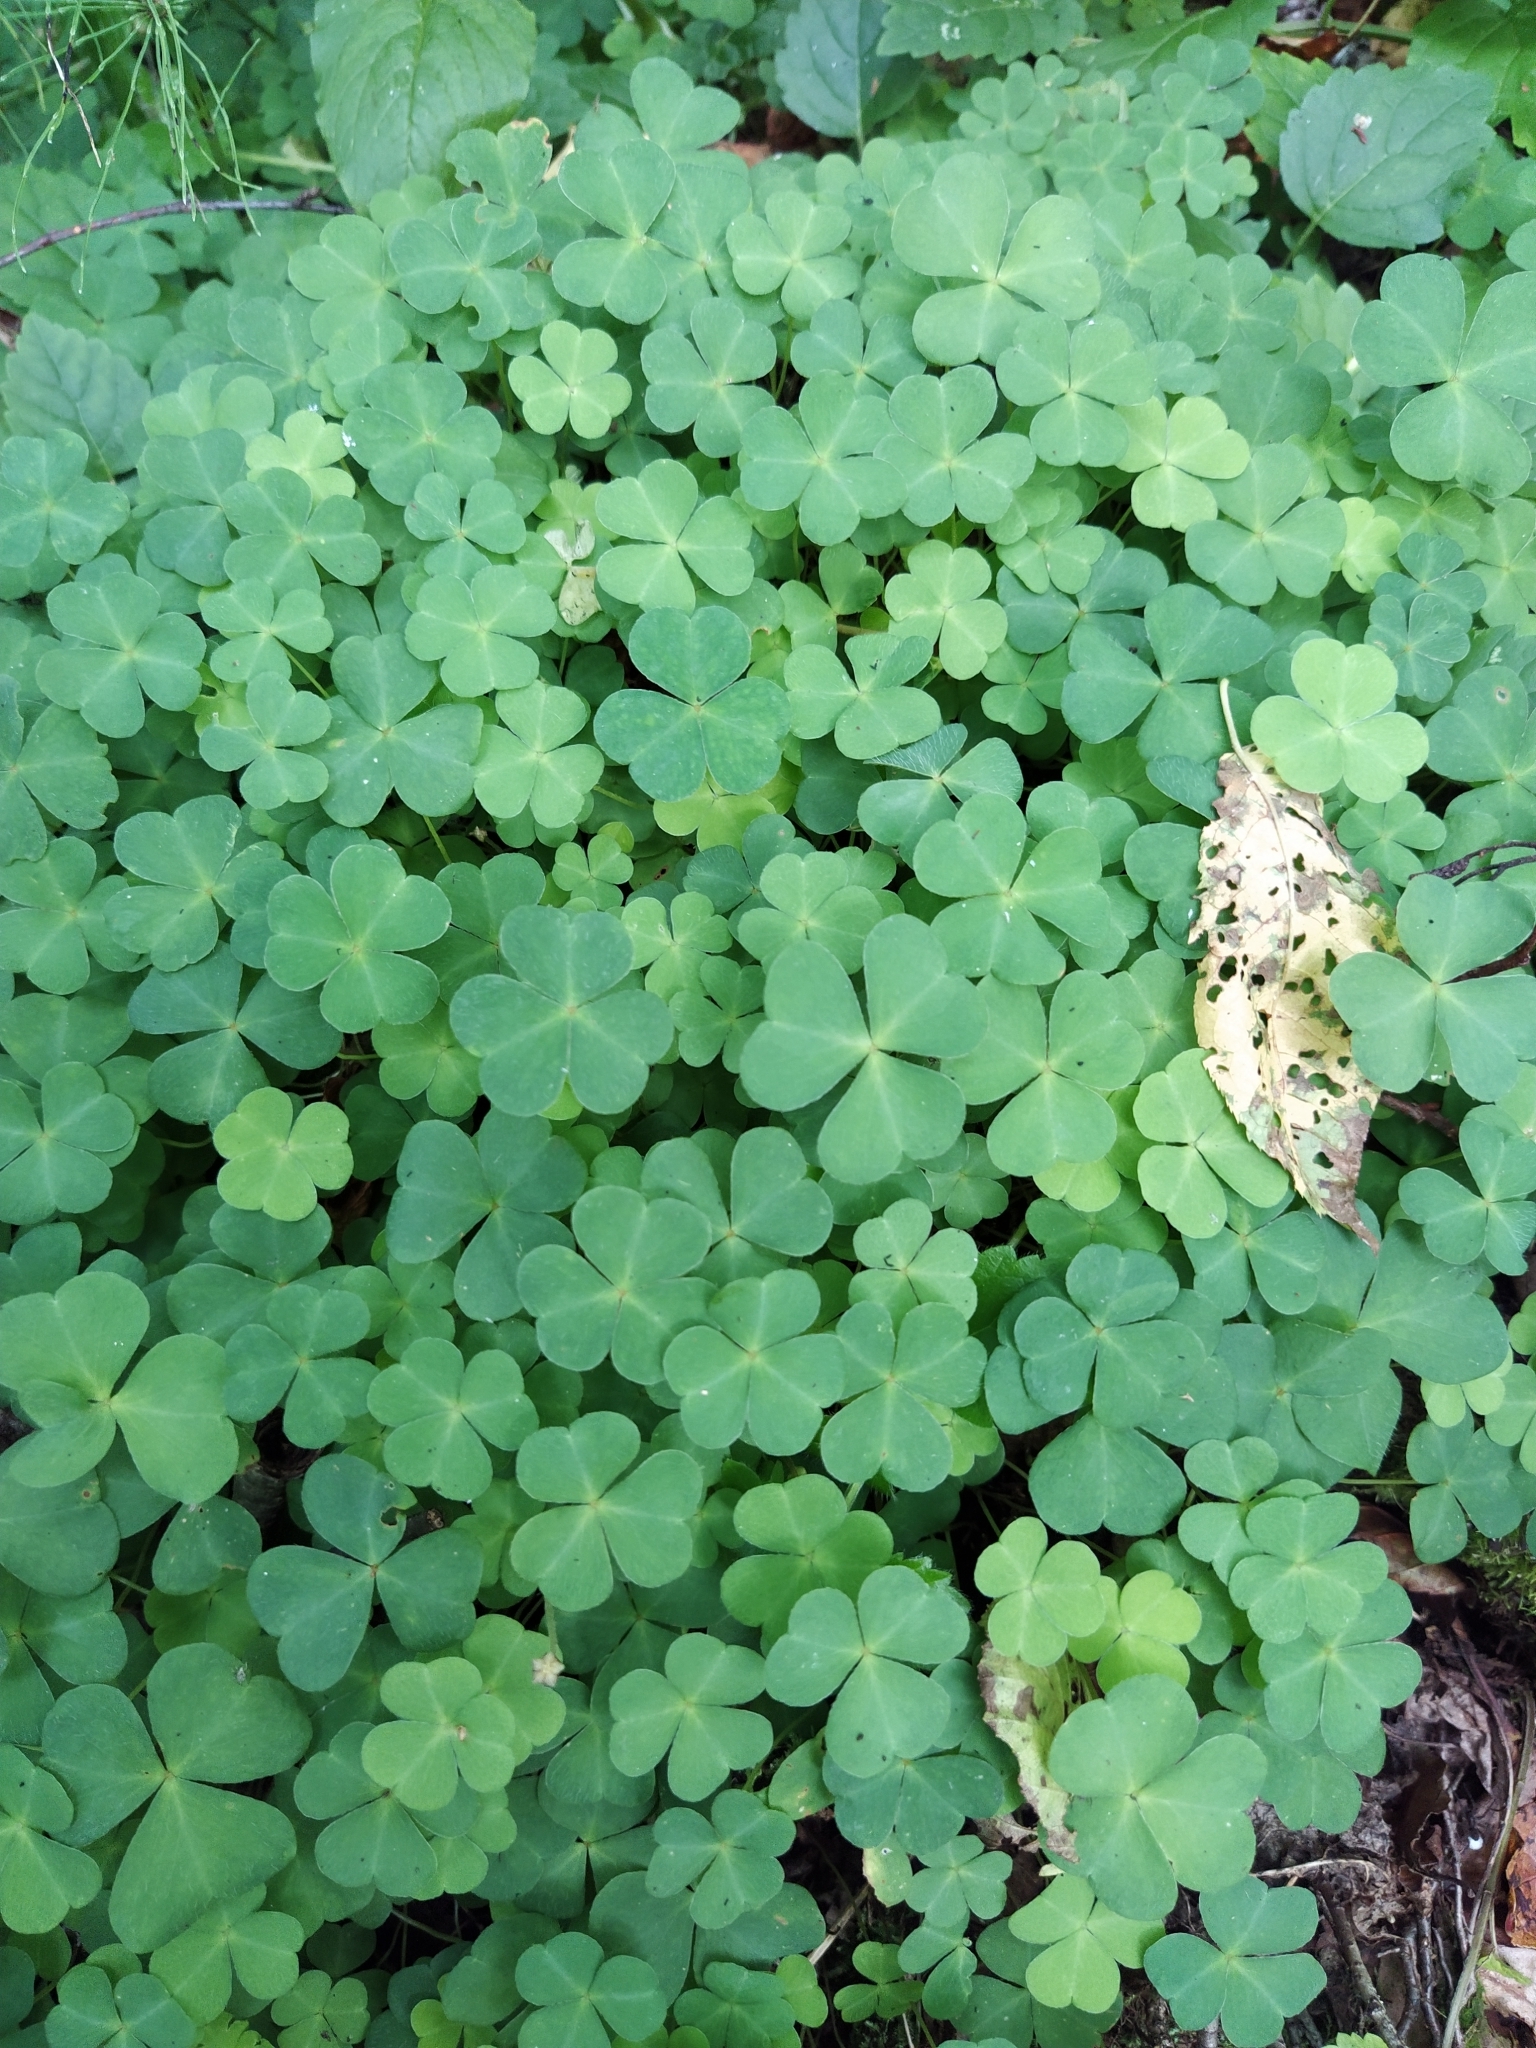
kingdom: Plantae
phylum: Tracheophyta
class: Magnoliopsida
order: Oxalidales
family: Oxalidaceae
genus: Oxalis
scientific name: Oxalis acetosella
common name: Wood-sorrel
